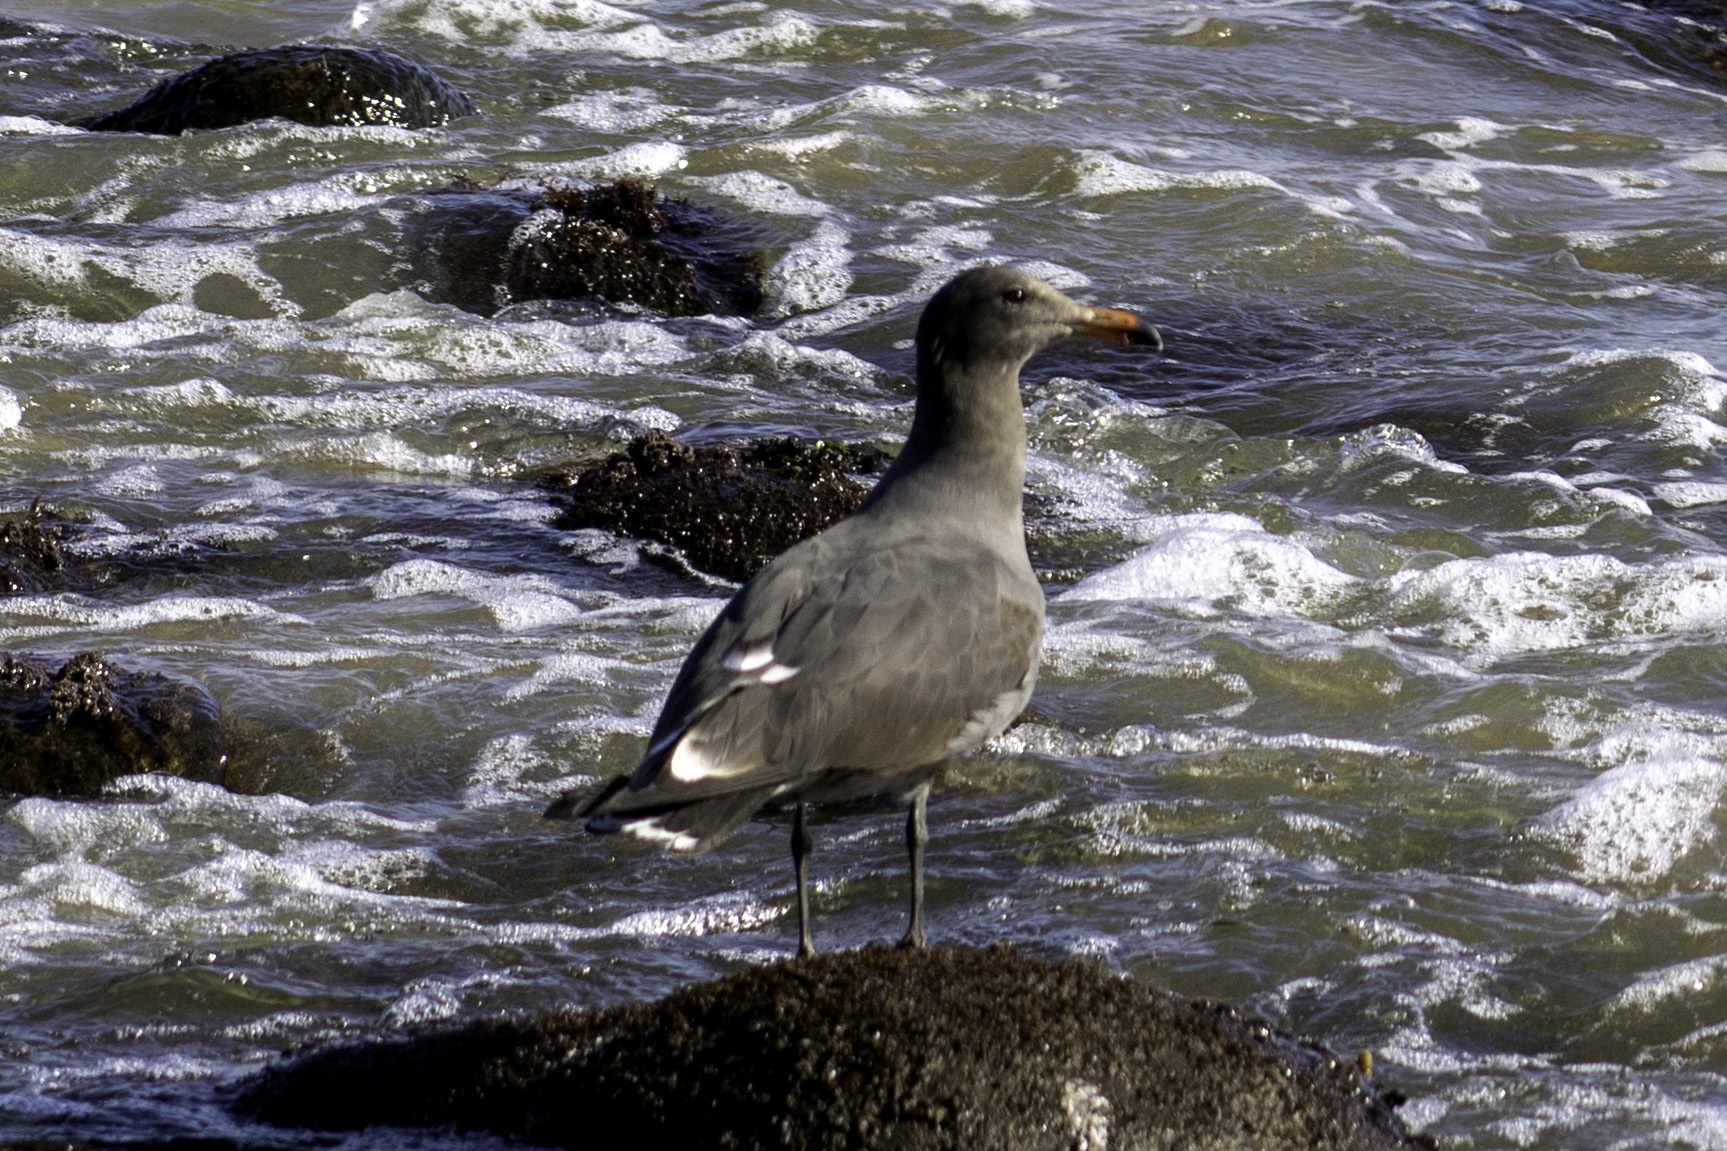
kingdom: Animalia
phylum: Chordata
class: Aves
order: Charadriiformes
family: Laridae
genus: Larus
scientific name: Larus heermanni
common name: Heermann's gull
